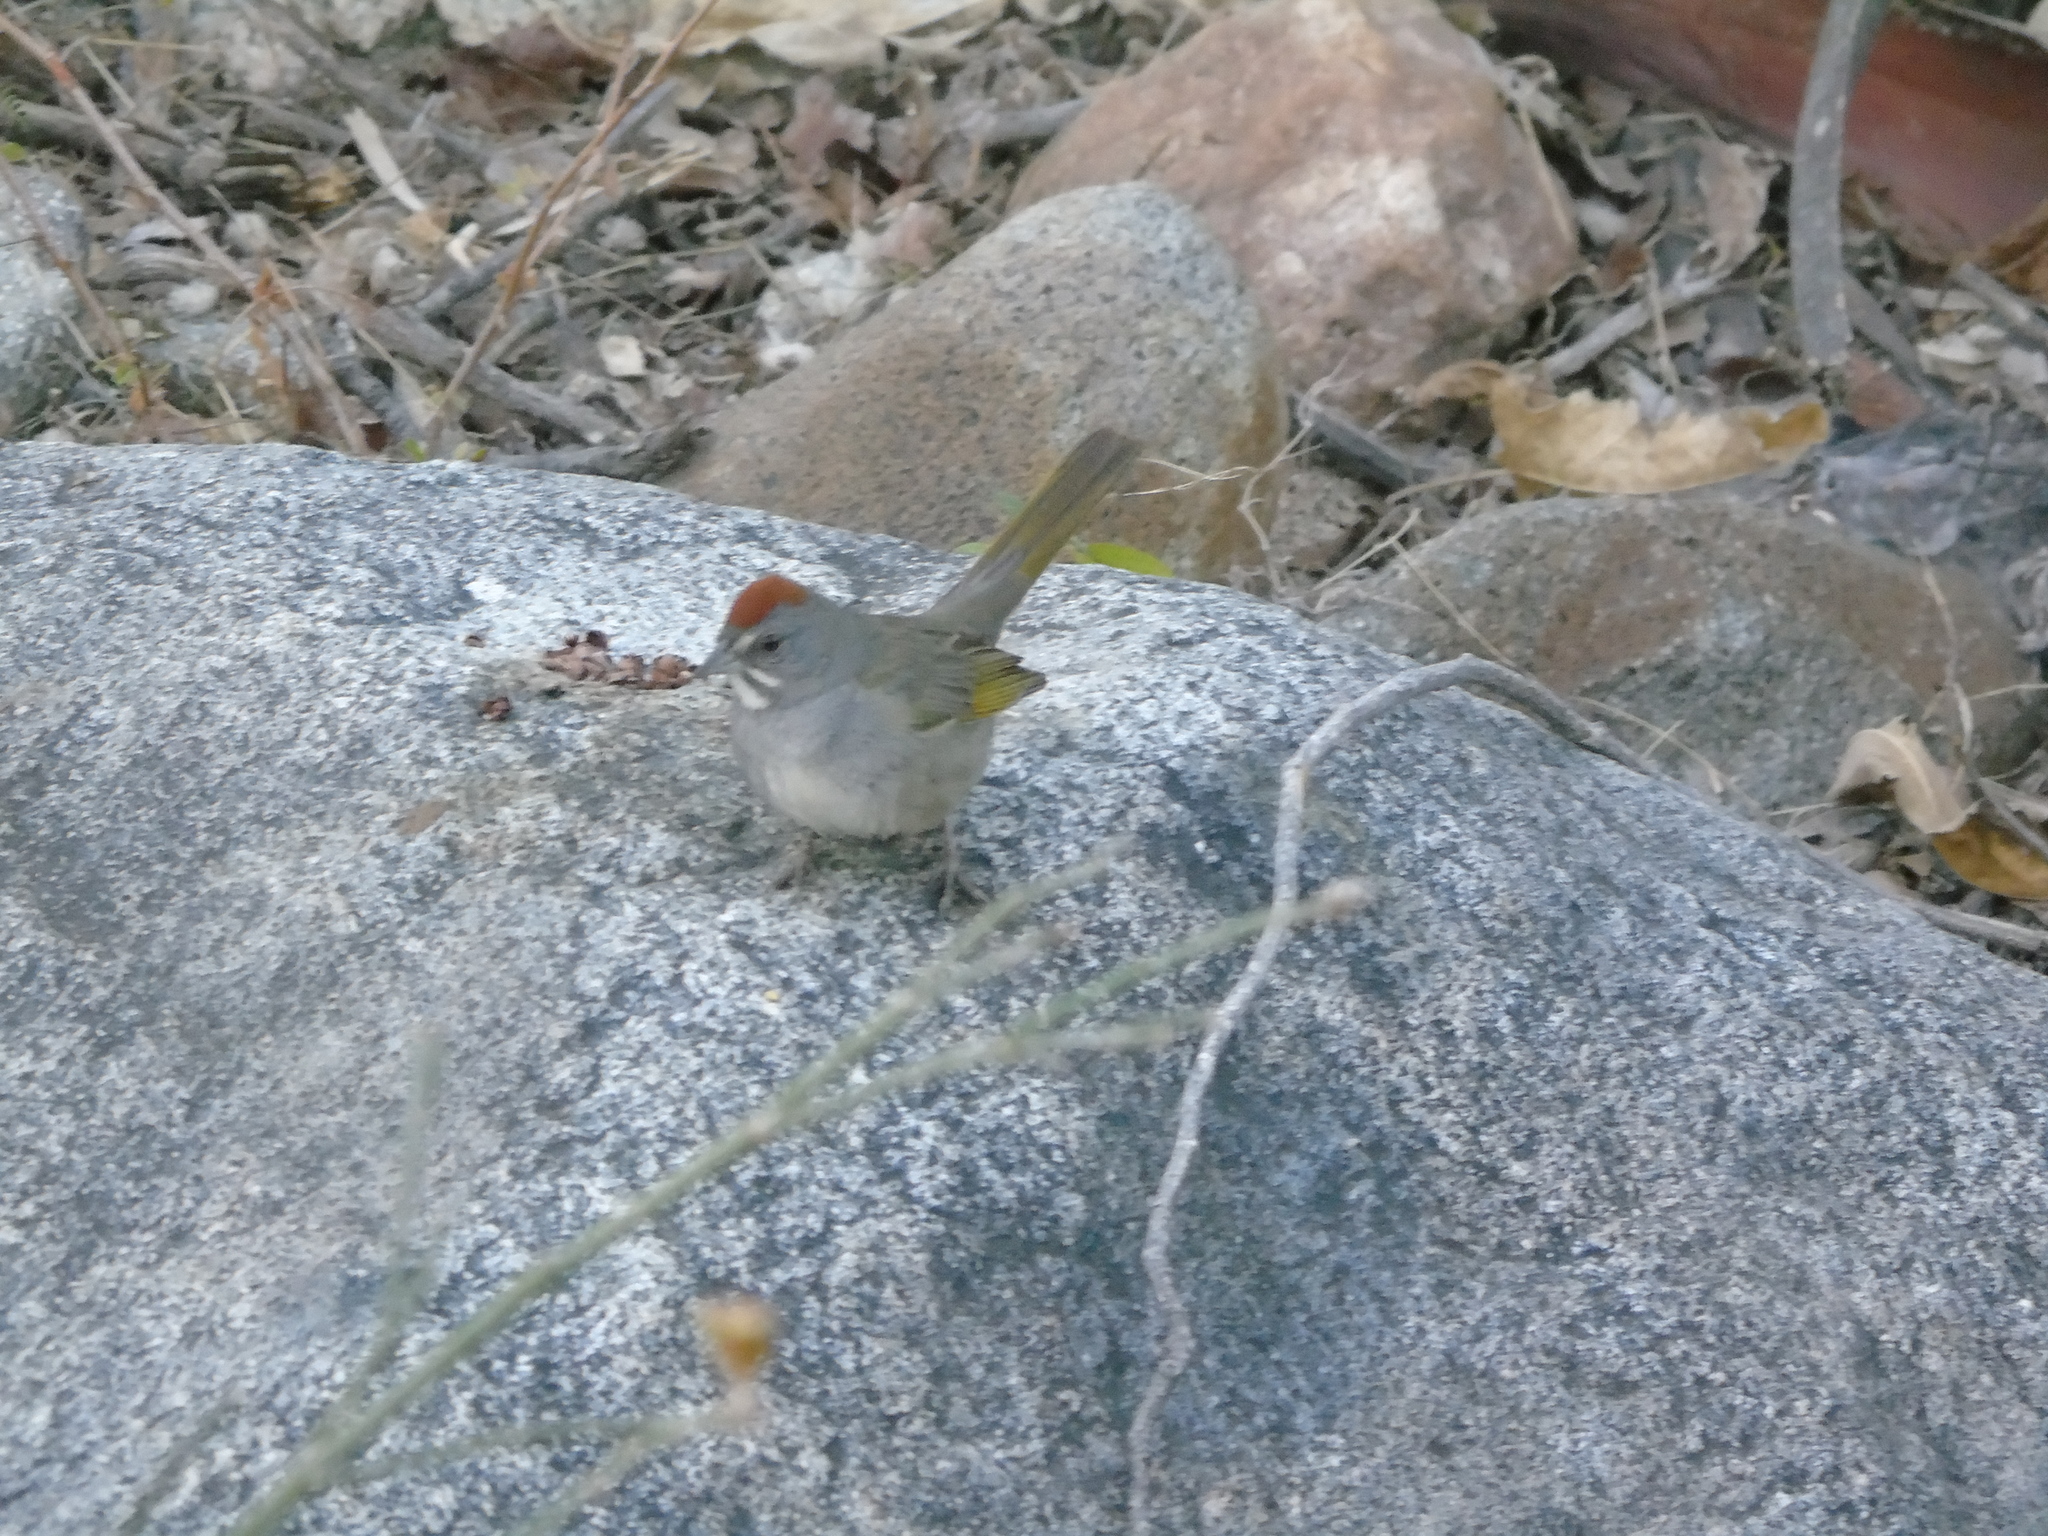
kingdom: Animalia
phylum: Chordata
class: Aves
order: Passeriformes
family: Passerellidae
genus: Pipilo
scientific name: Pipilo chlorurus
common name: Green-tailed towhee
